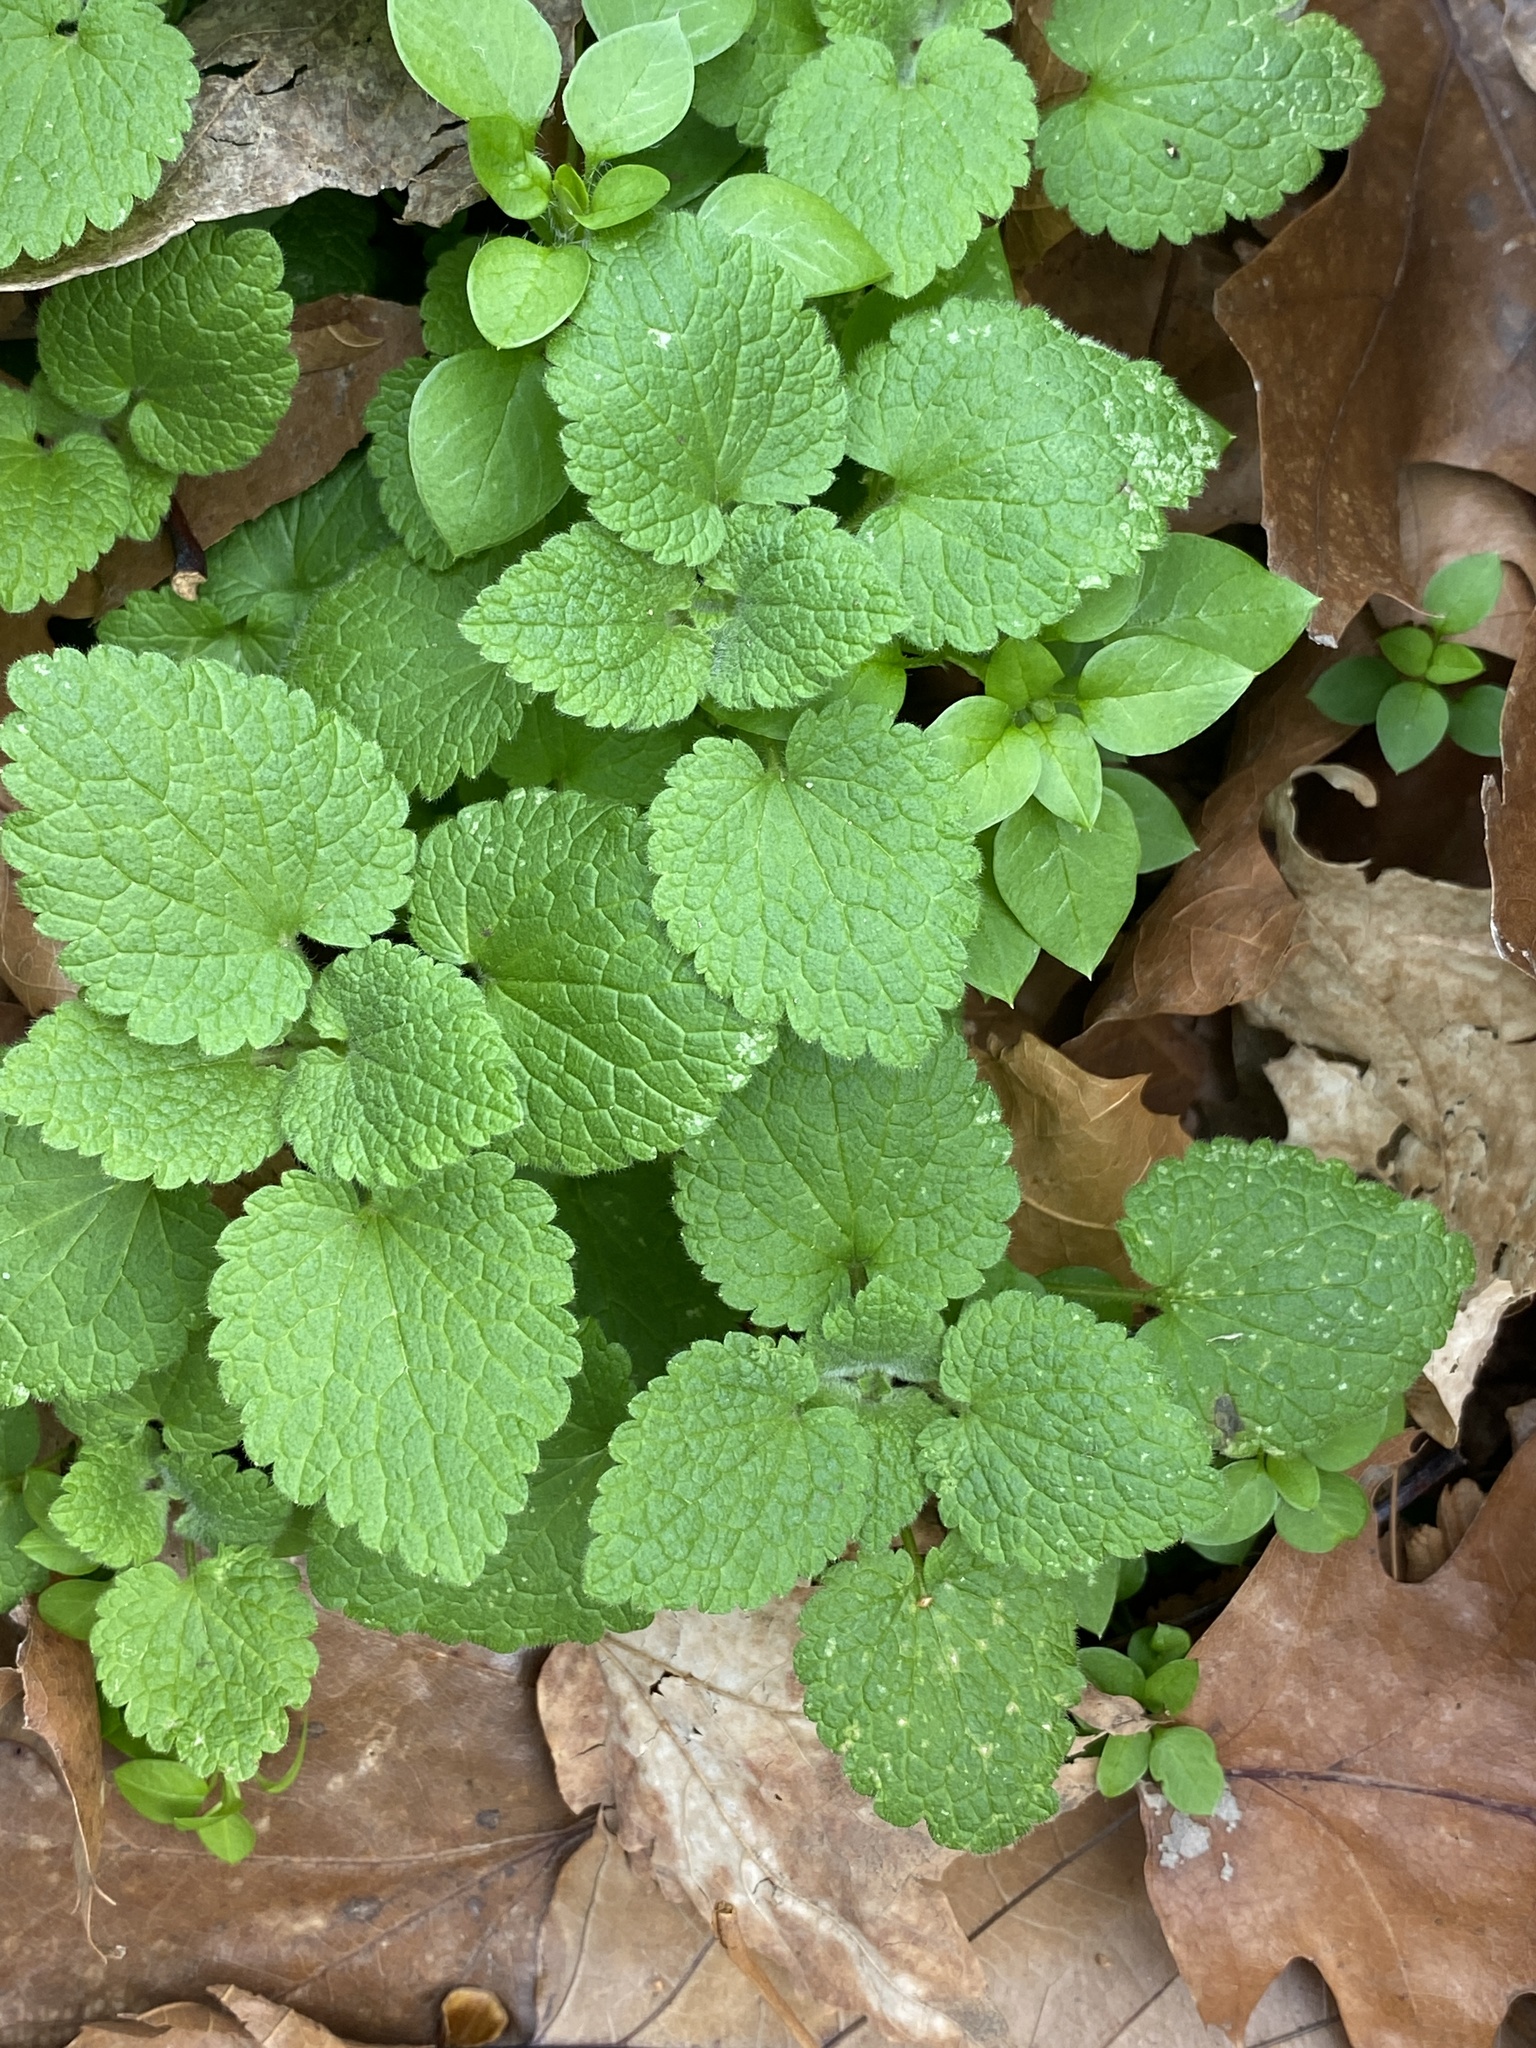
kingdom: Plantae
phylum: Tracheophyta
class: Magnoliopsida
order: Lamiales
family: Lamiaceae
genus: Lamium
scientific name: Lamium purpureum
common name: Red dead-nettle
